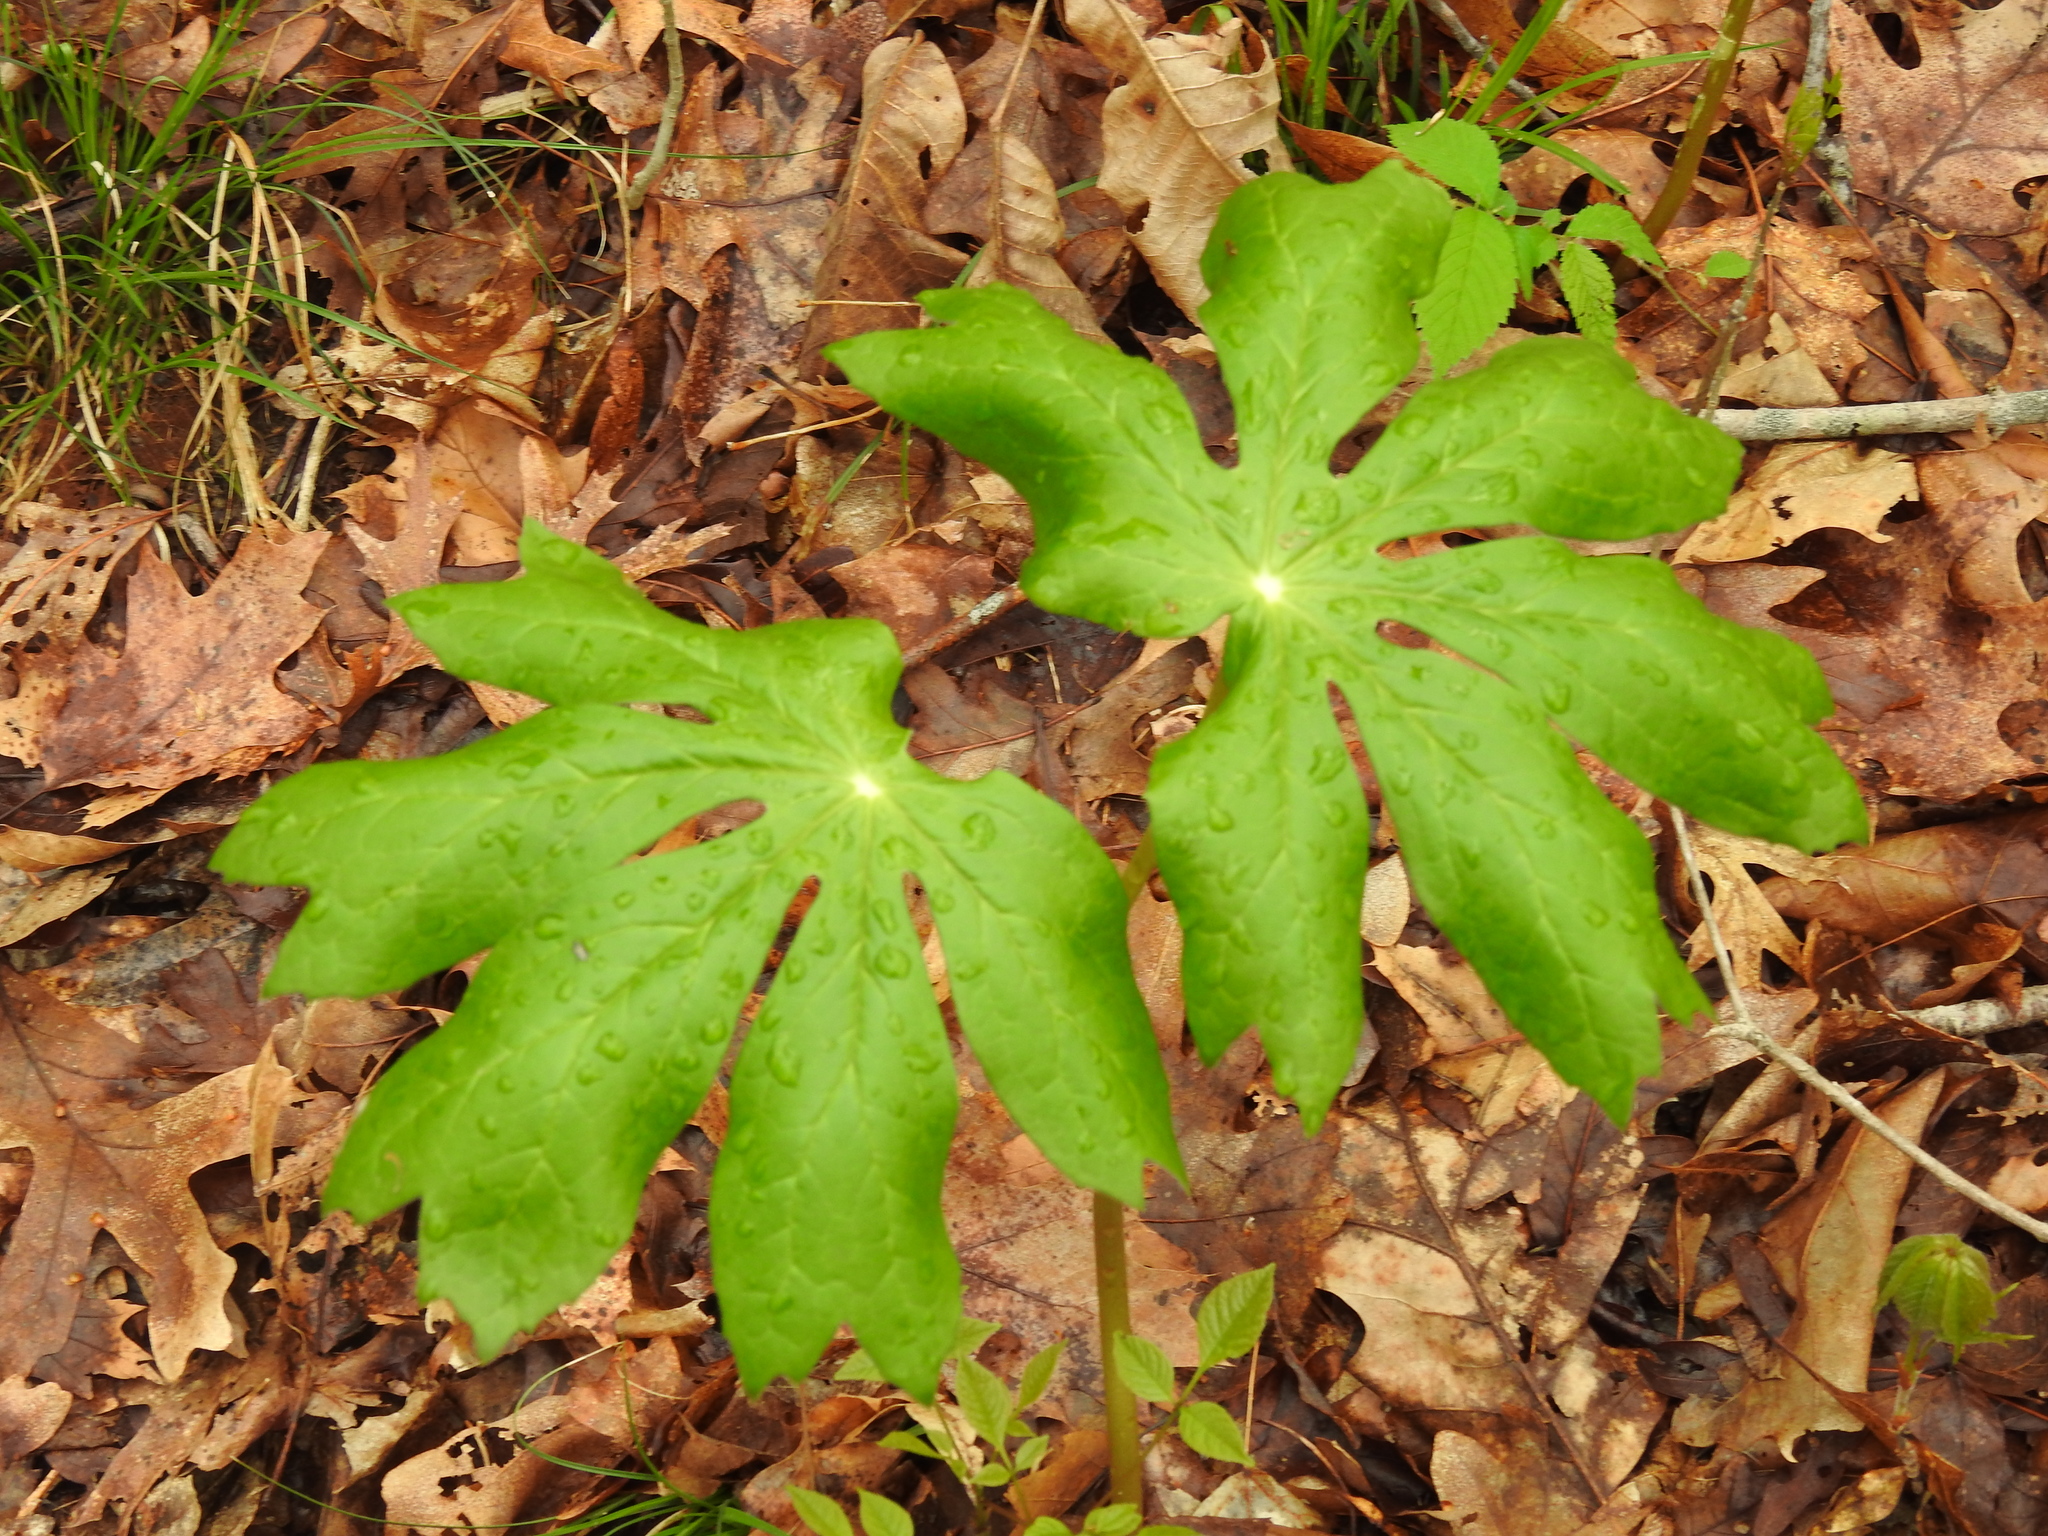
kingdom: Plantae
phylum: Tracheophyta
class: Magnoliopsida
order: Ranunculales
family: Berberidaceae
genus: Podophyllum
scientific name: Podophyllum peltatum
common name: Wild mandrake
